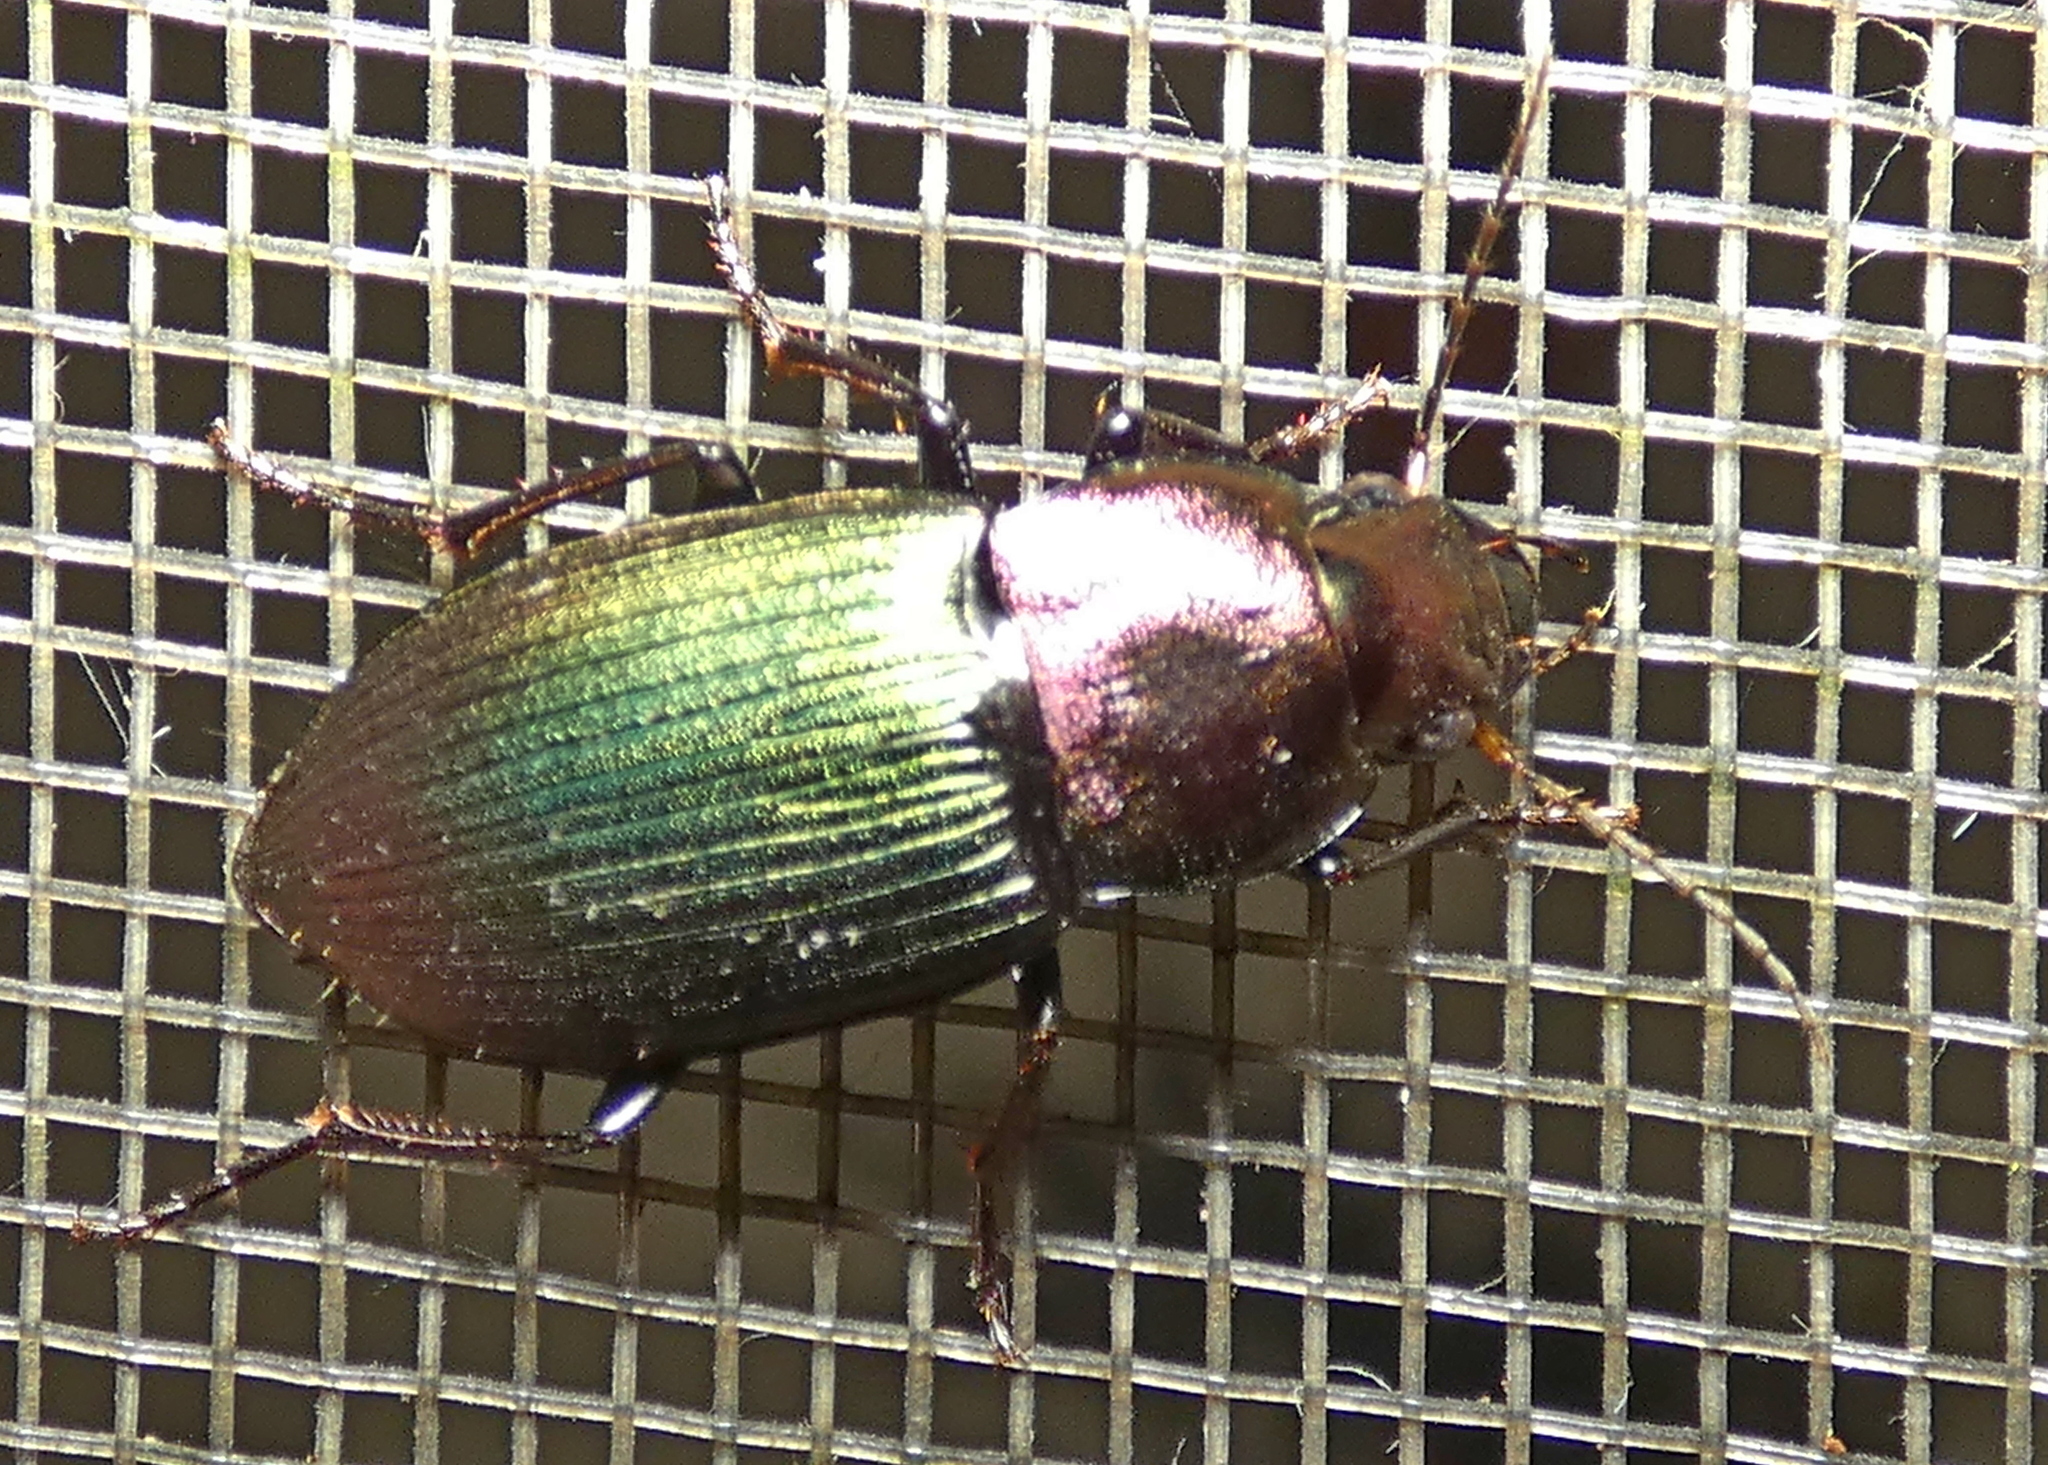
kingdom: Animalia
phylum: Arthropoda
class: Insecta
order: Coleoptera
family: Carabidae
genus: Neoaulacoryssus
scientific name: Neoaulacoryssus speciosus
